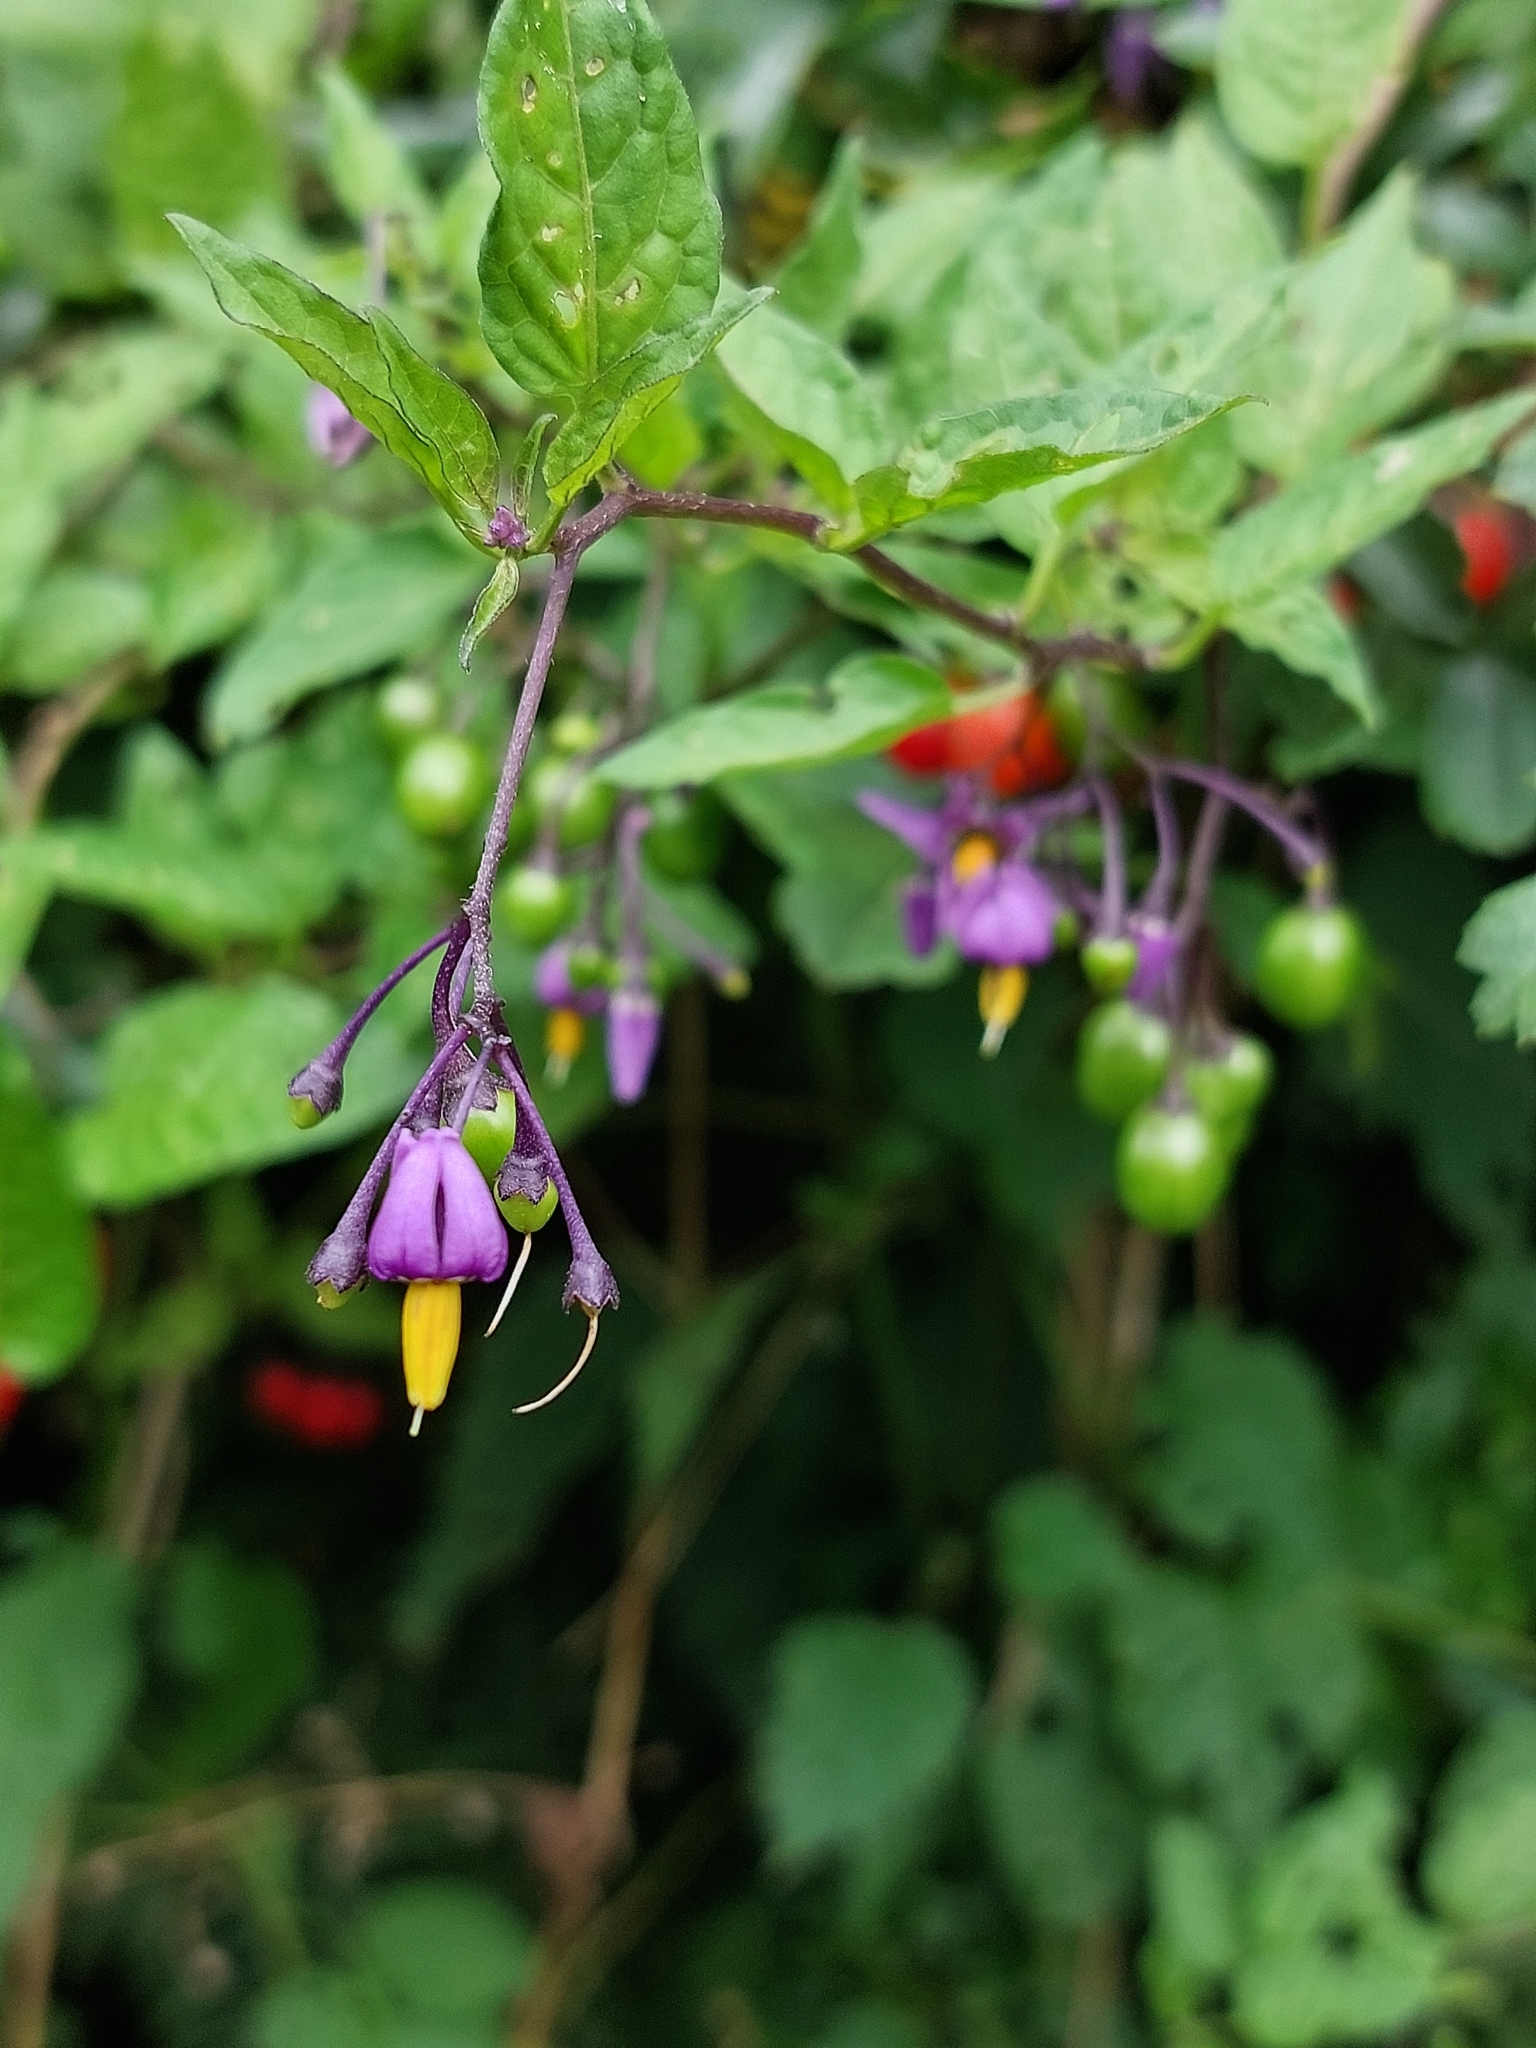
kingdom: Plantae
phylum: Tracheophyta
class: Magnoliopsida
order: Solanales
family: Solanaceae
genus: Solanum
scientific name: Solanum dulcamara
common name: Climbing nightshade
